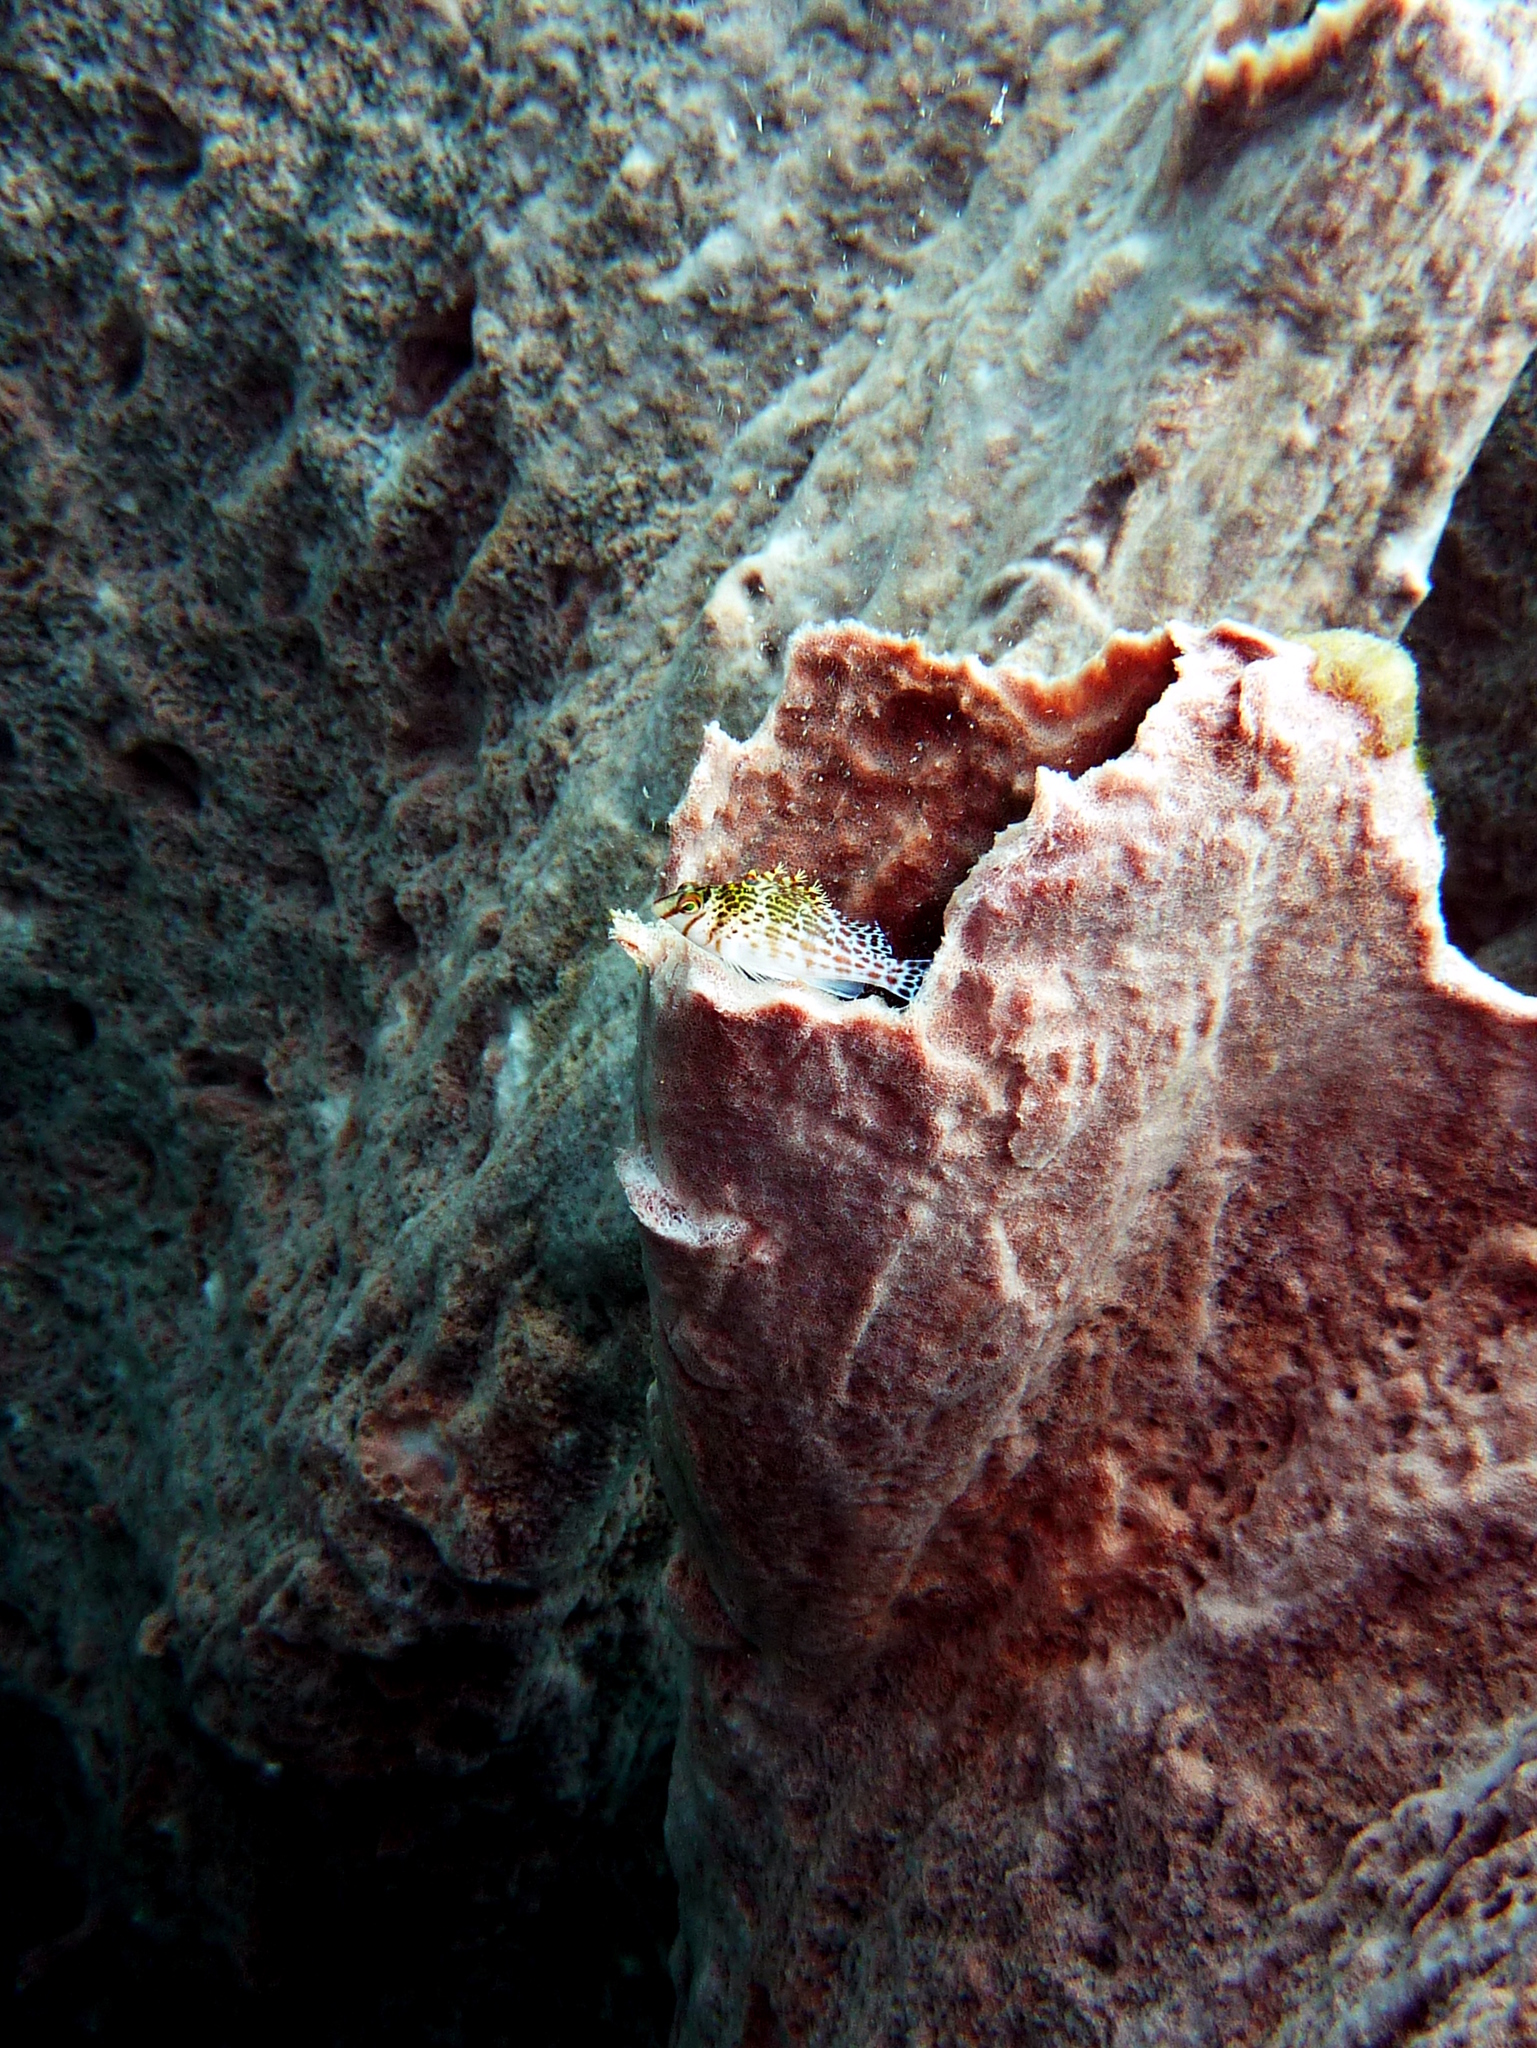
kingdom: Animalia
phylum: Chordata
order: Perciformes
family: Cirrhitidae
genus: Cirrhitichthys
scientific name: Cirrhitichthys falco
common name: Coral hawkfish
